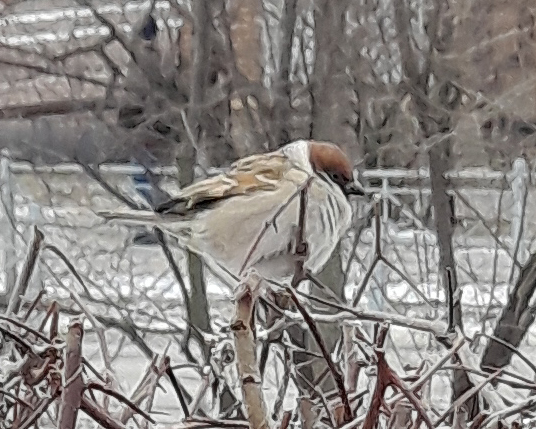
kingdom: Animalia
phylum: Chordata
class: Aves
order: Passeriformes
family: Passeridae
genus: Passer
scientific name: Passer montanus
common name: Eurasian tree sparrow
